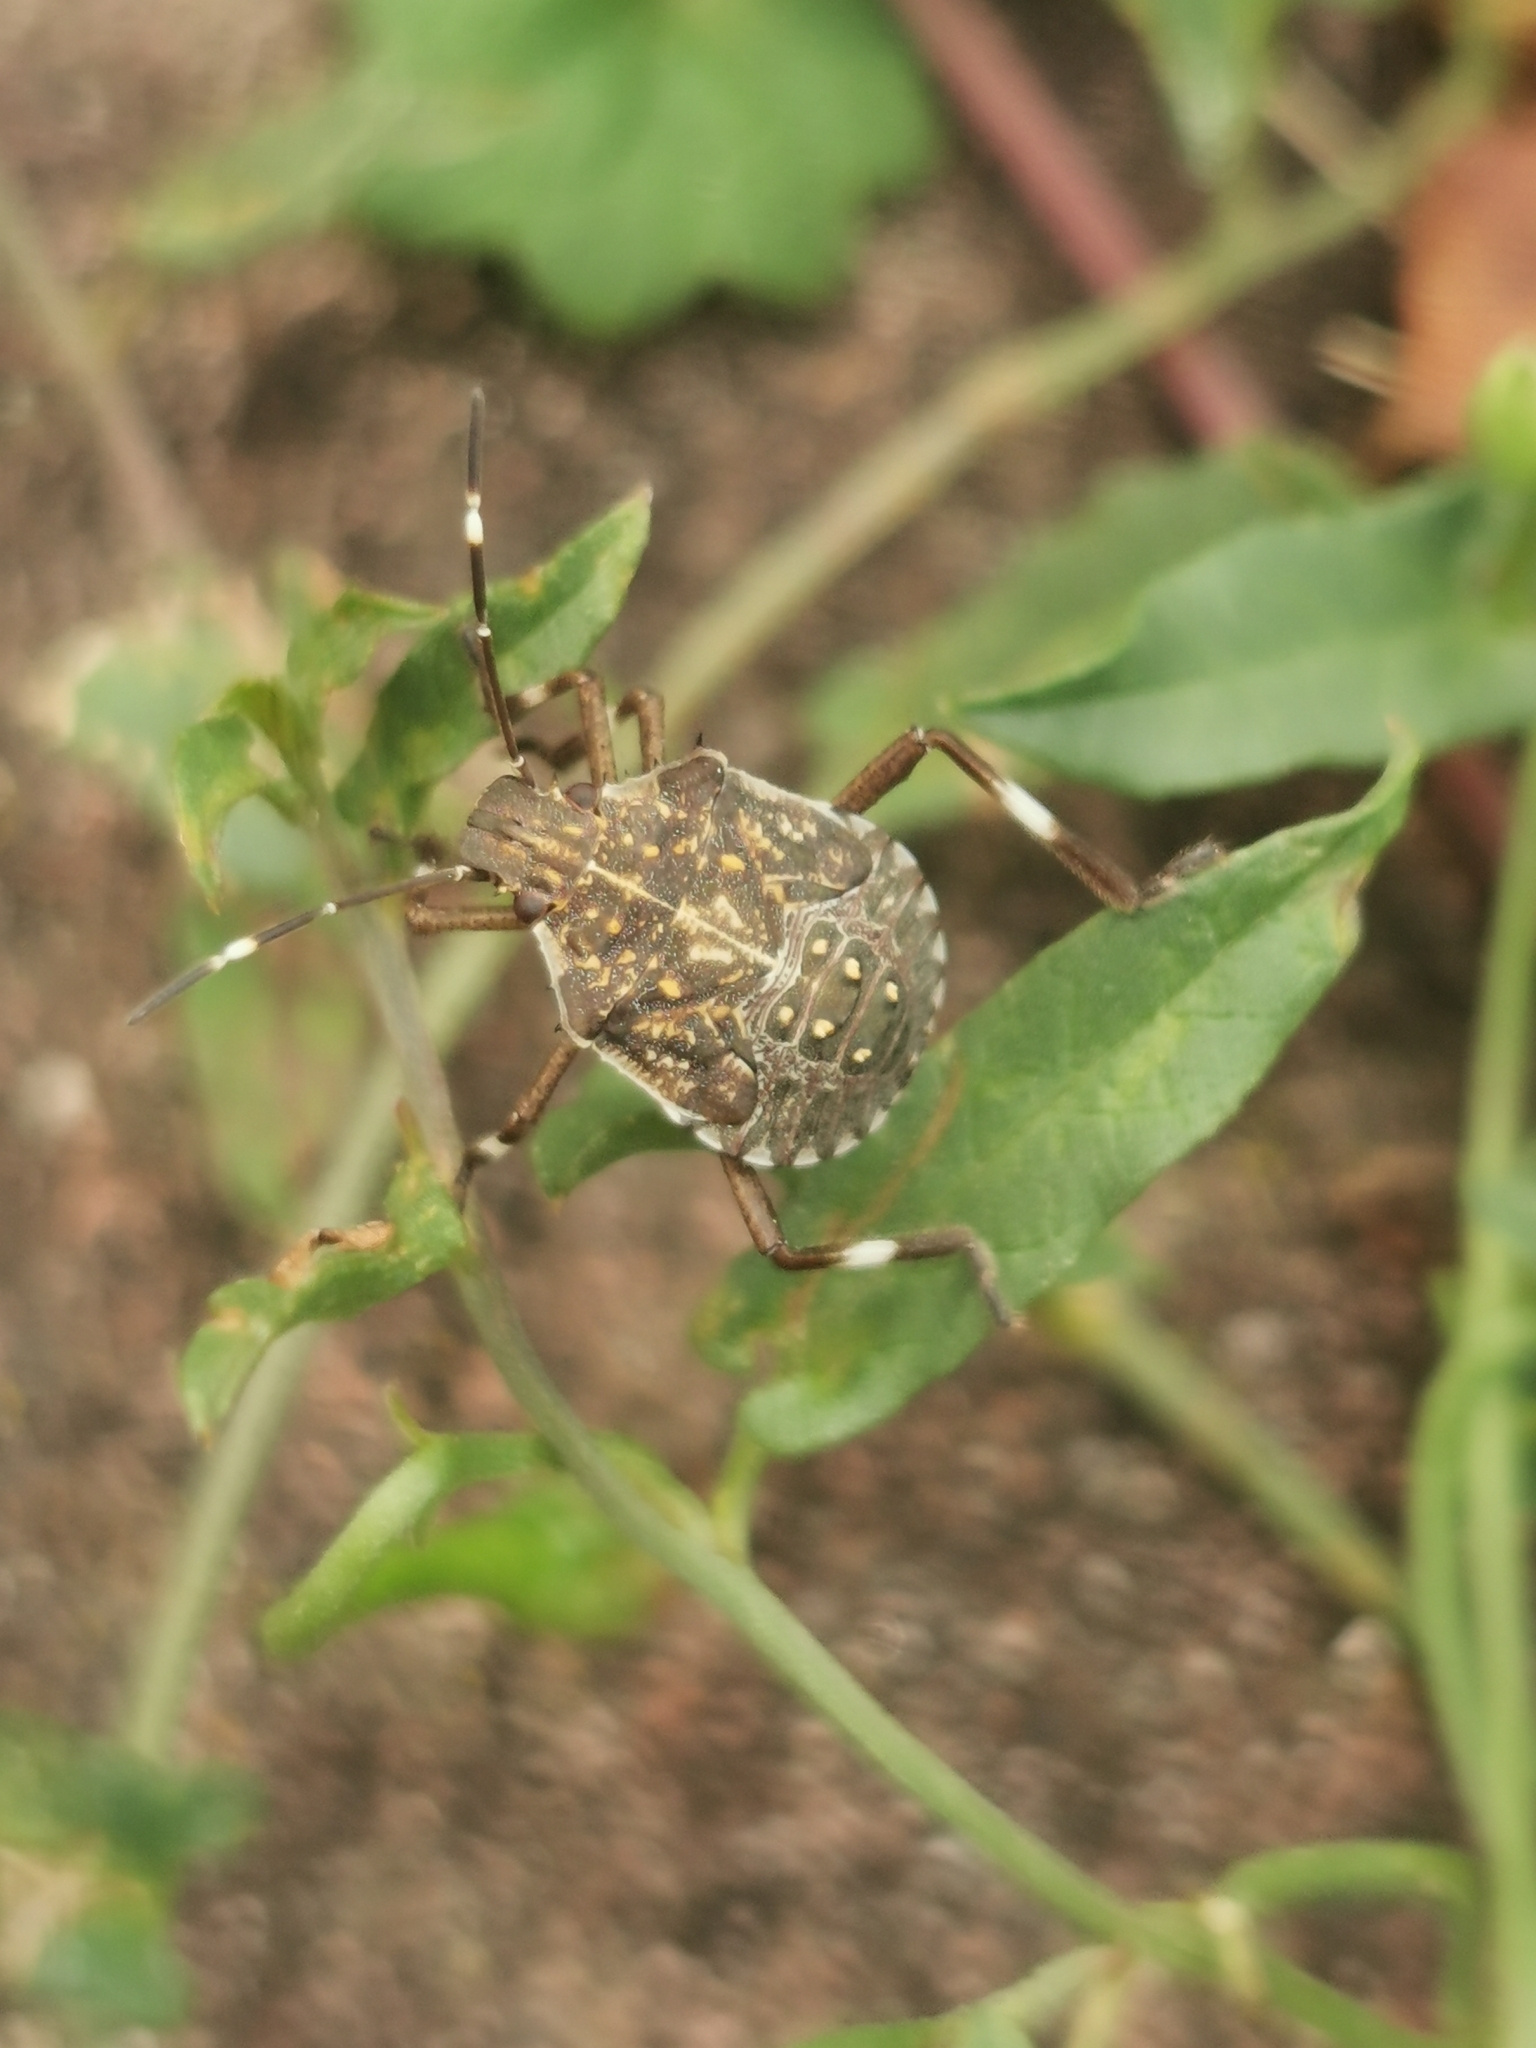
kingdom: Animalia
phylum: Arthropoda
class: Insecta
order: Hemiptera
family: Pentatomidae
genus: Halyomorpha
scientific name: Halyomorpha halys
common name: Brown marmorated stink bug
